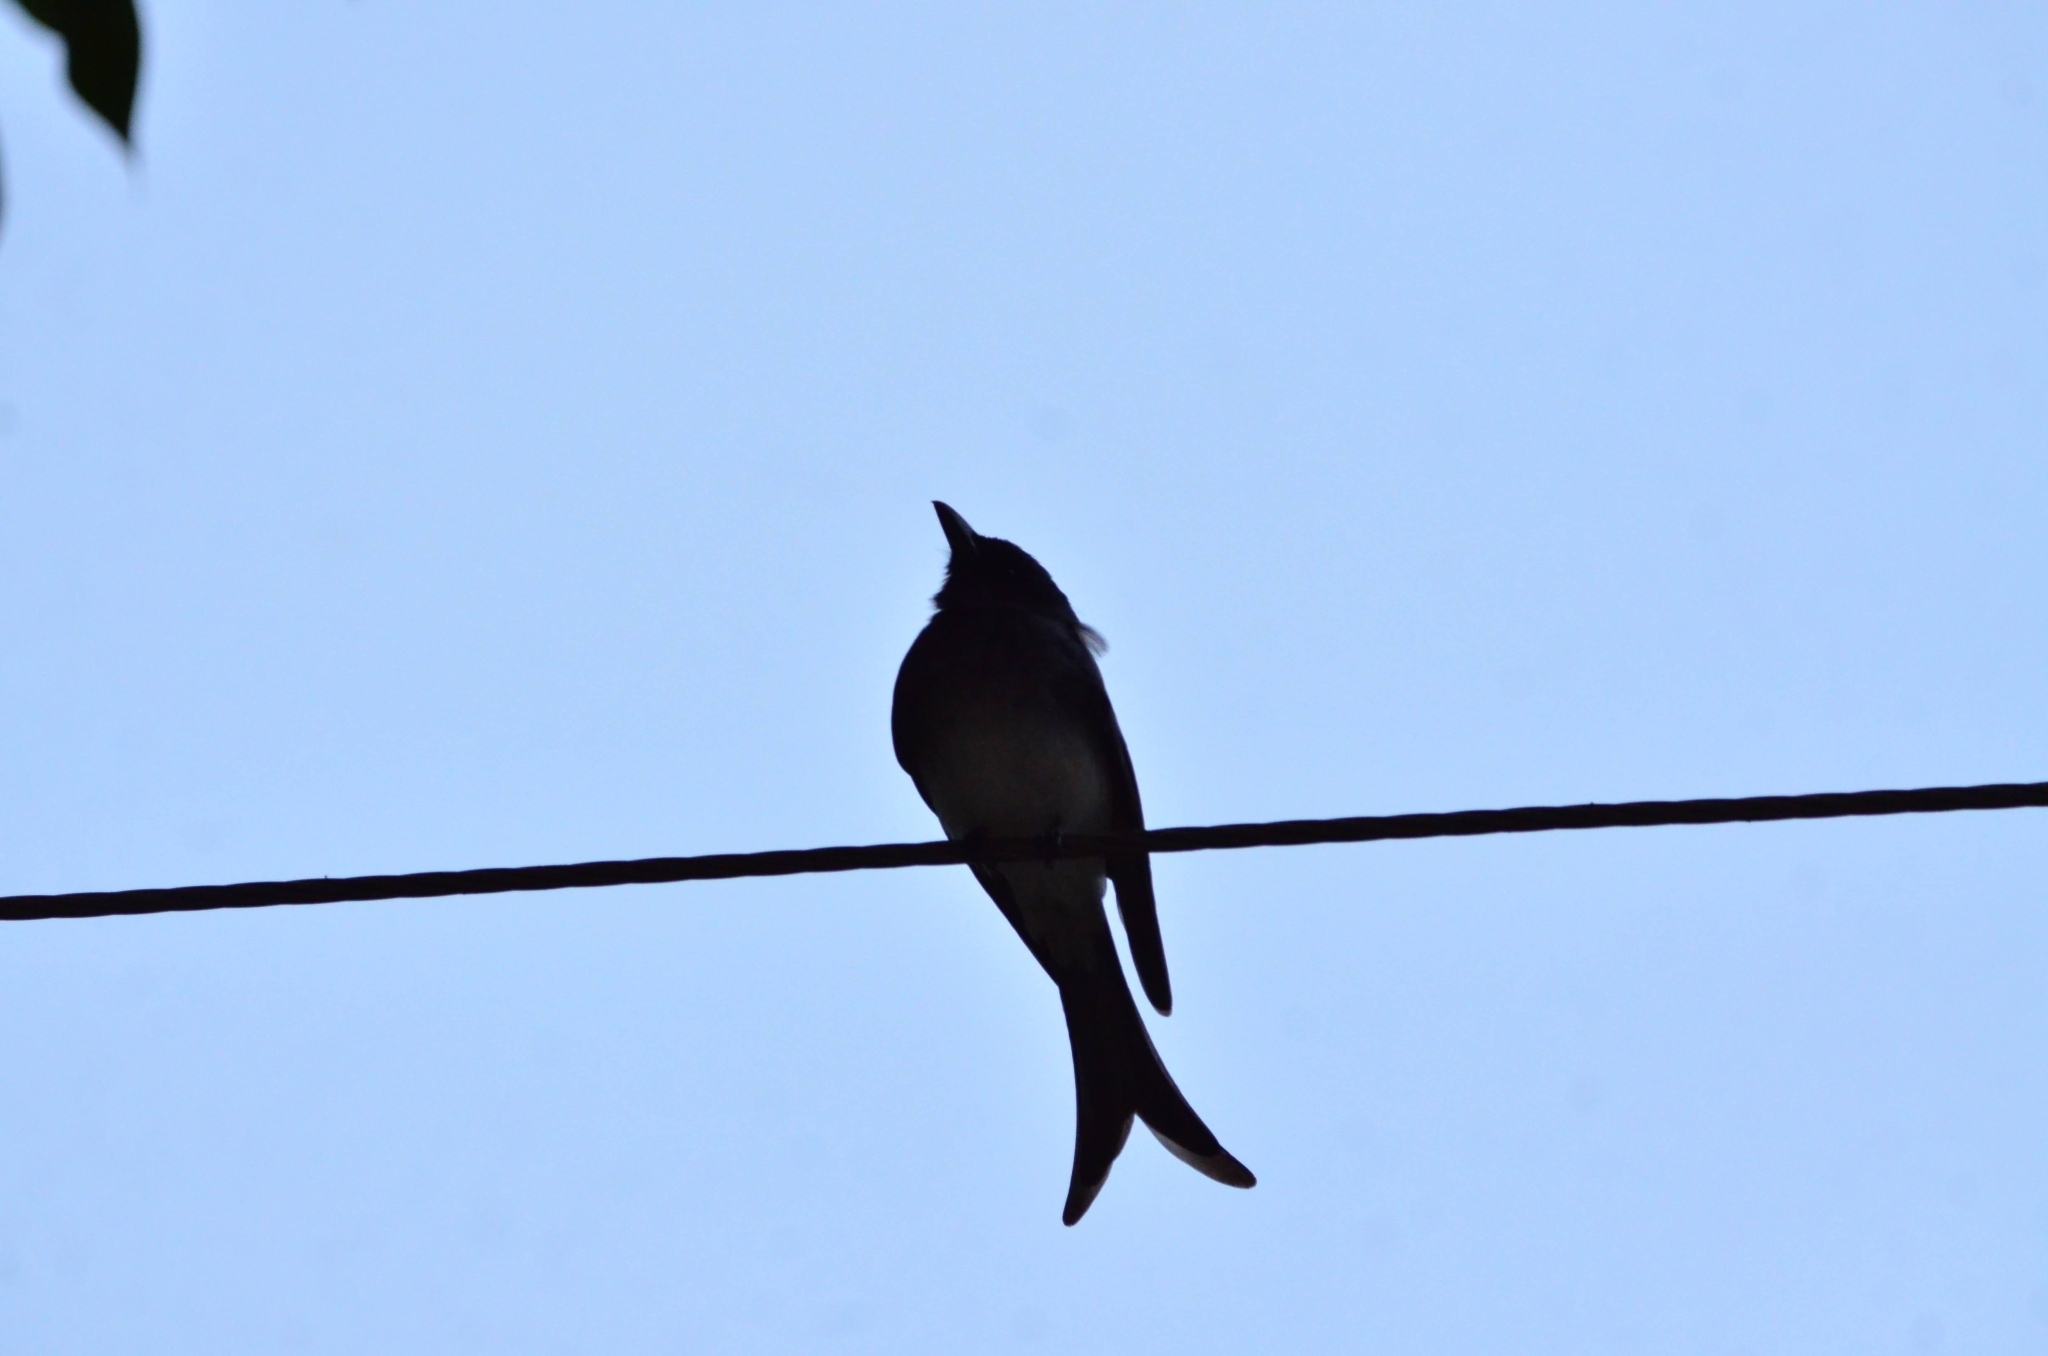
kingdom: Animalia
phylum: Chordata
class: Aves
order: Passeriformes
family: Dicruridae
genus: Dicrurus
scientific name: Dicrurus caerulescens
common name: White-bellied drongo
